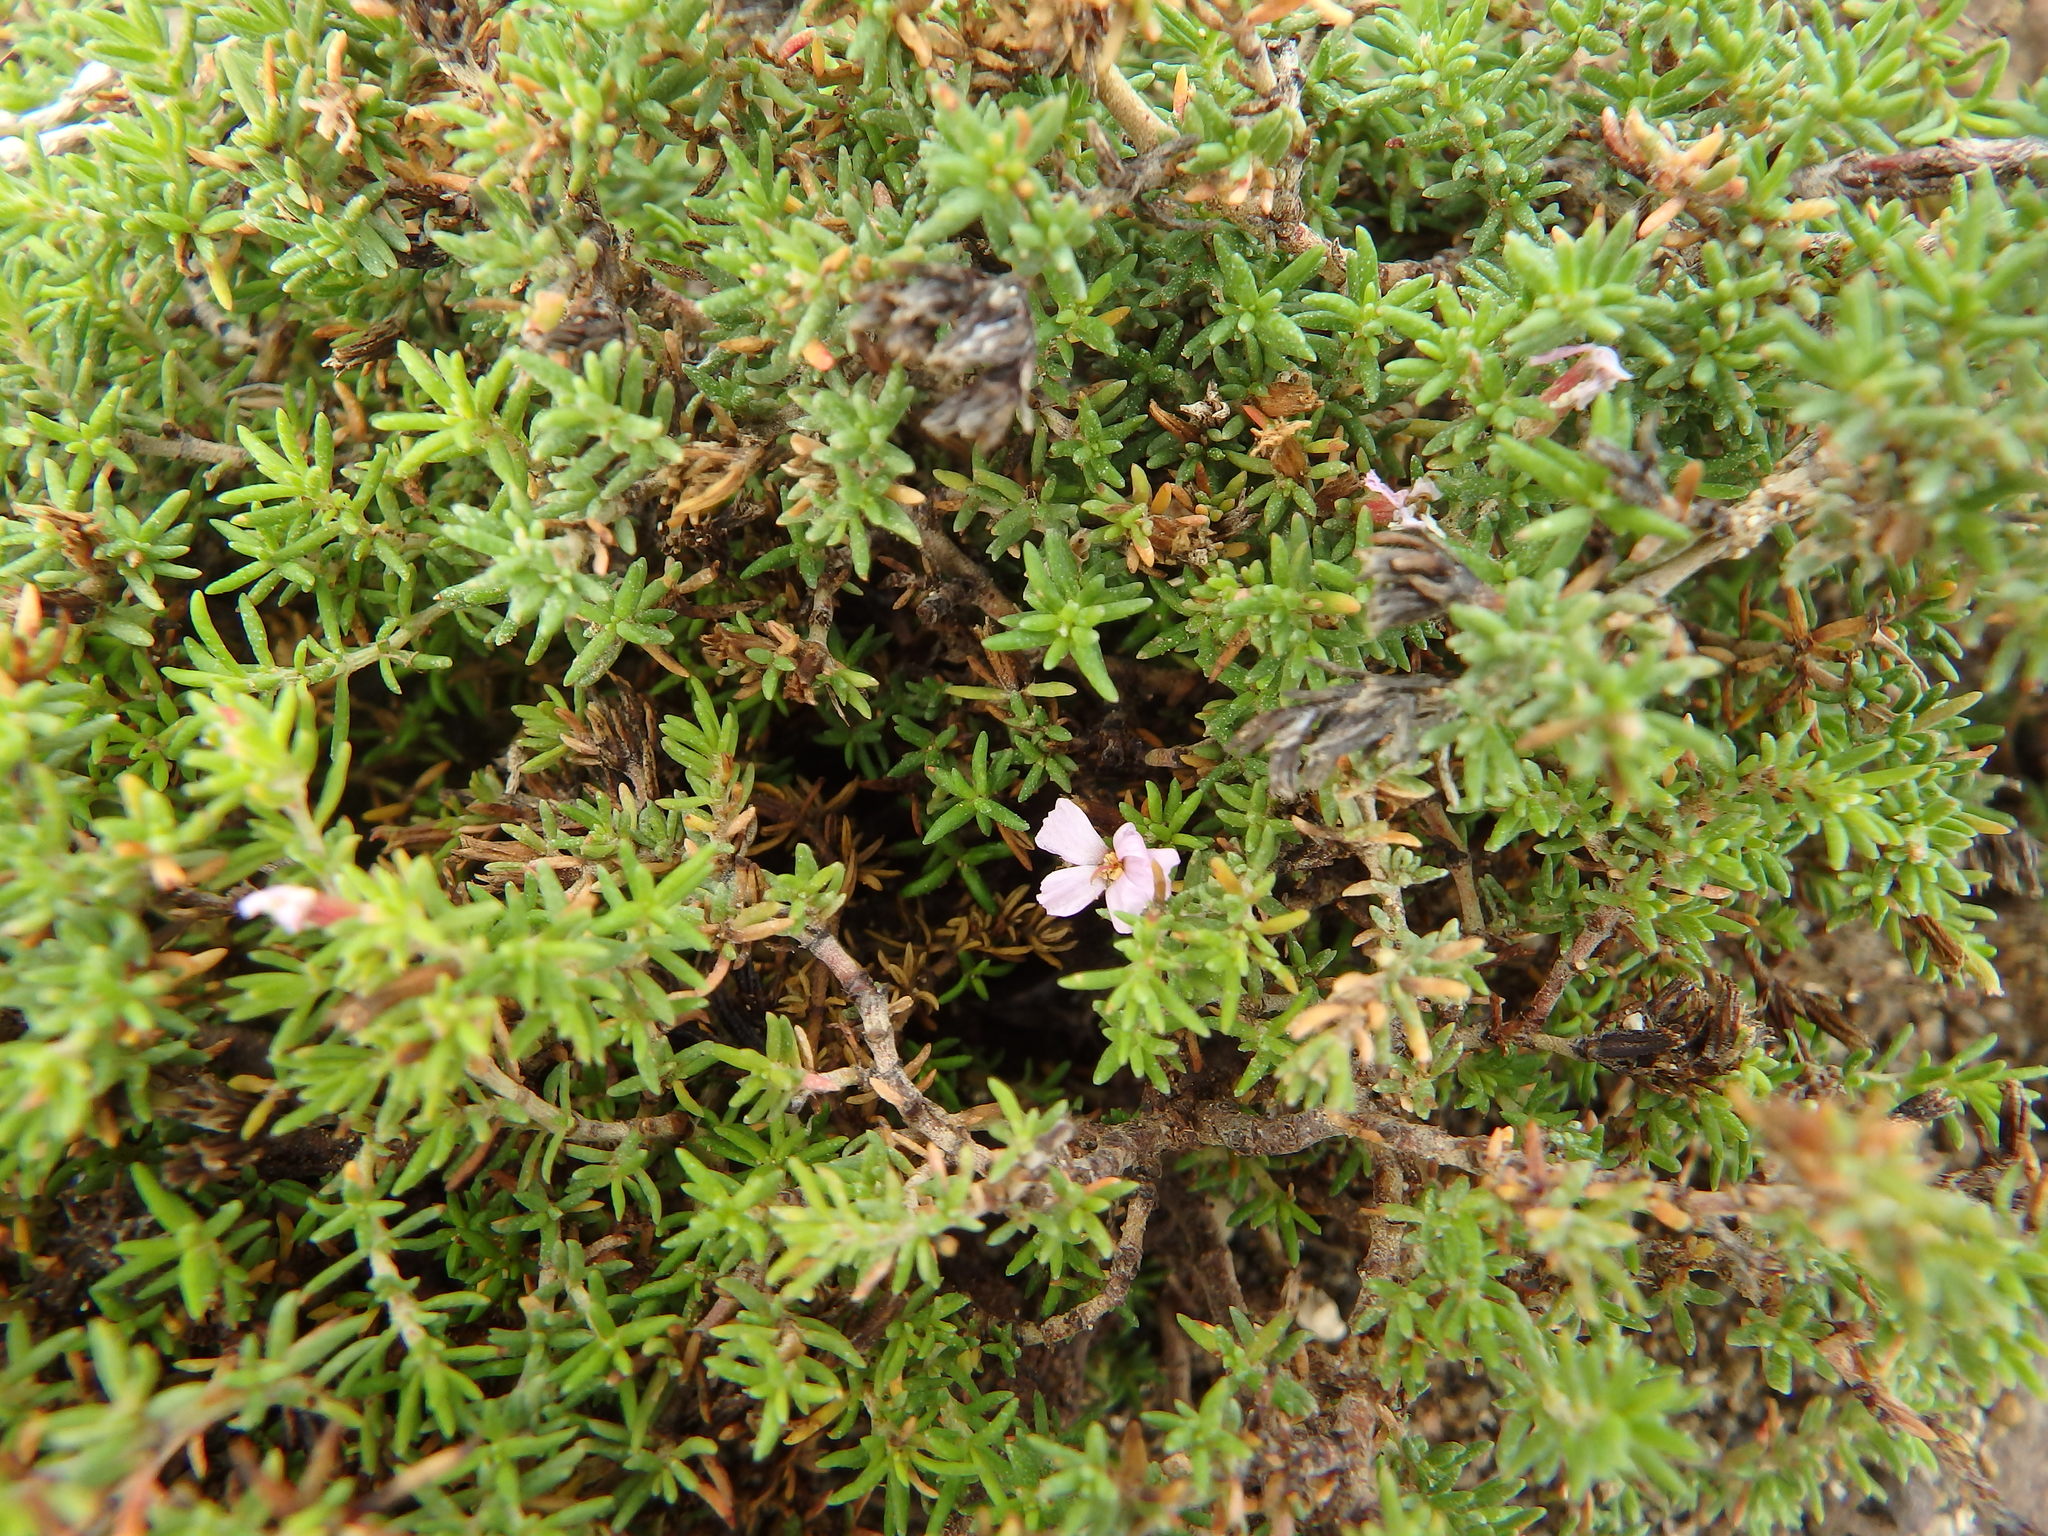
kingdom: Plantae
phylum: Tracheophyta
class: Magnoliopsida
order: Caryophyllales
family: Frankeniaceae
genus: Frankenia
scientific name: Frankenia laevis
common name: Sea-heath
